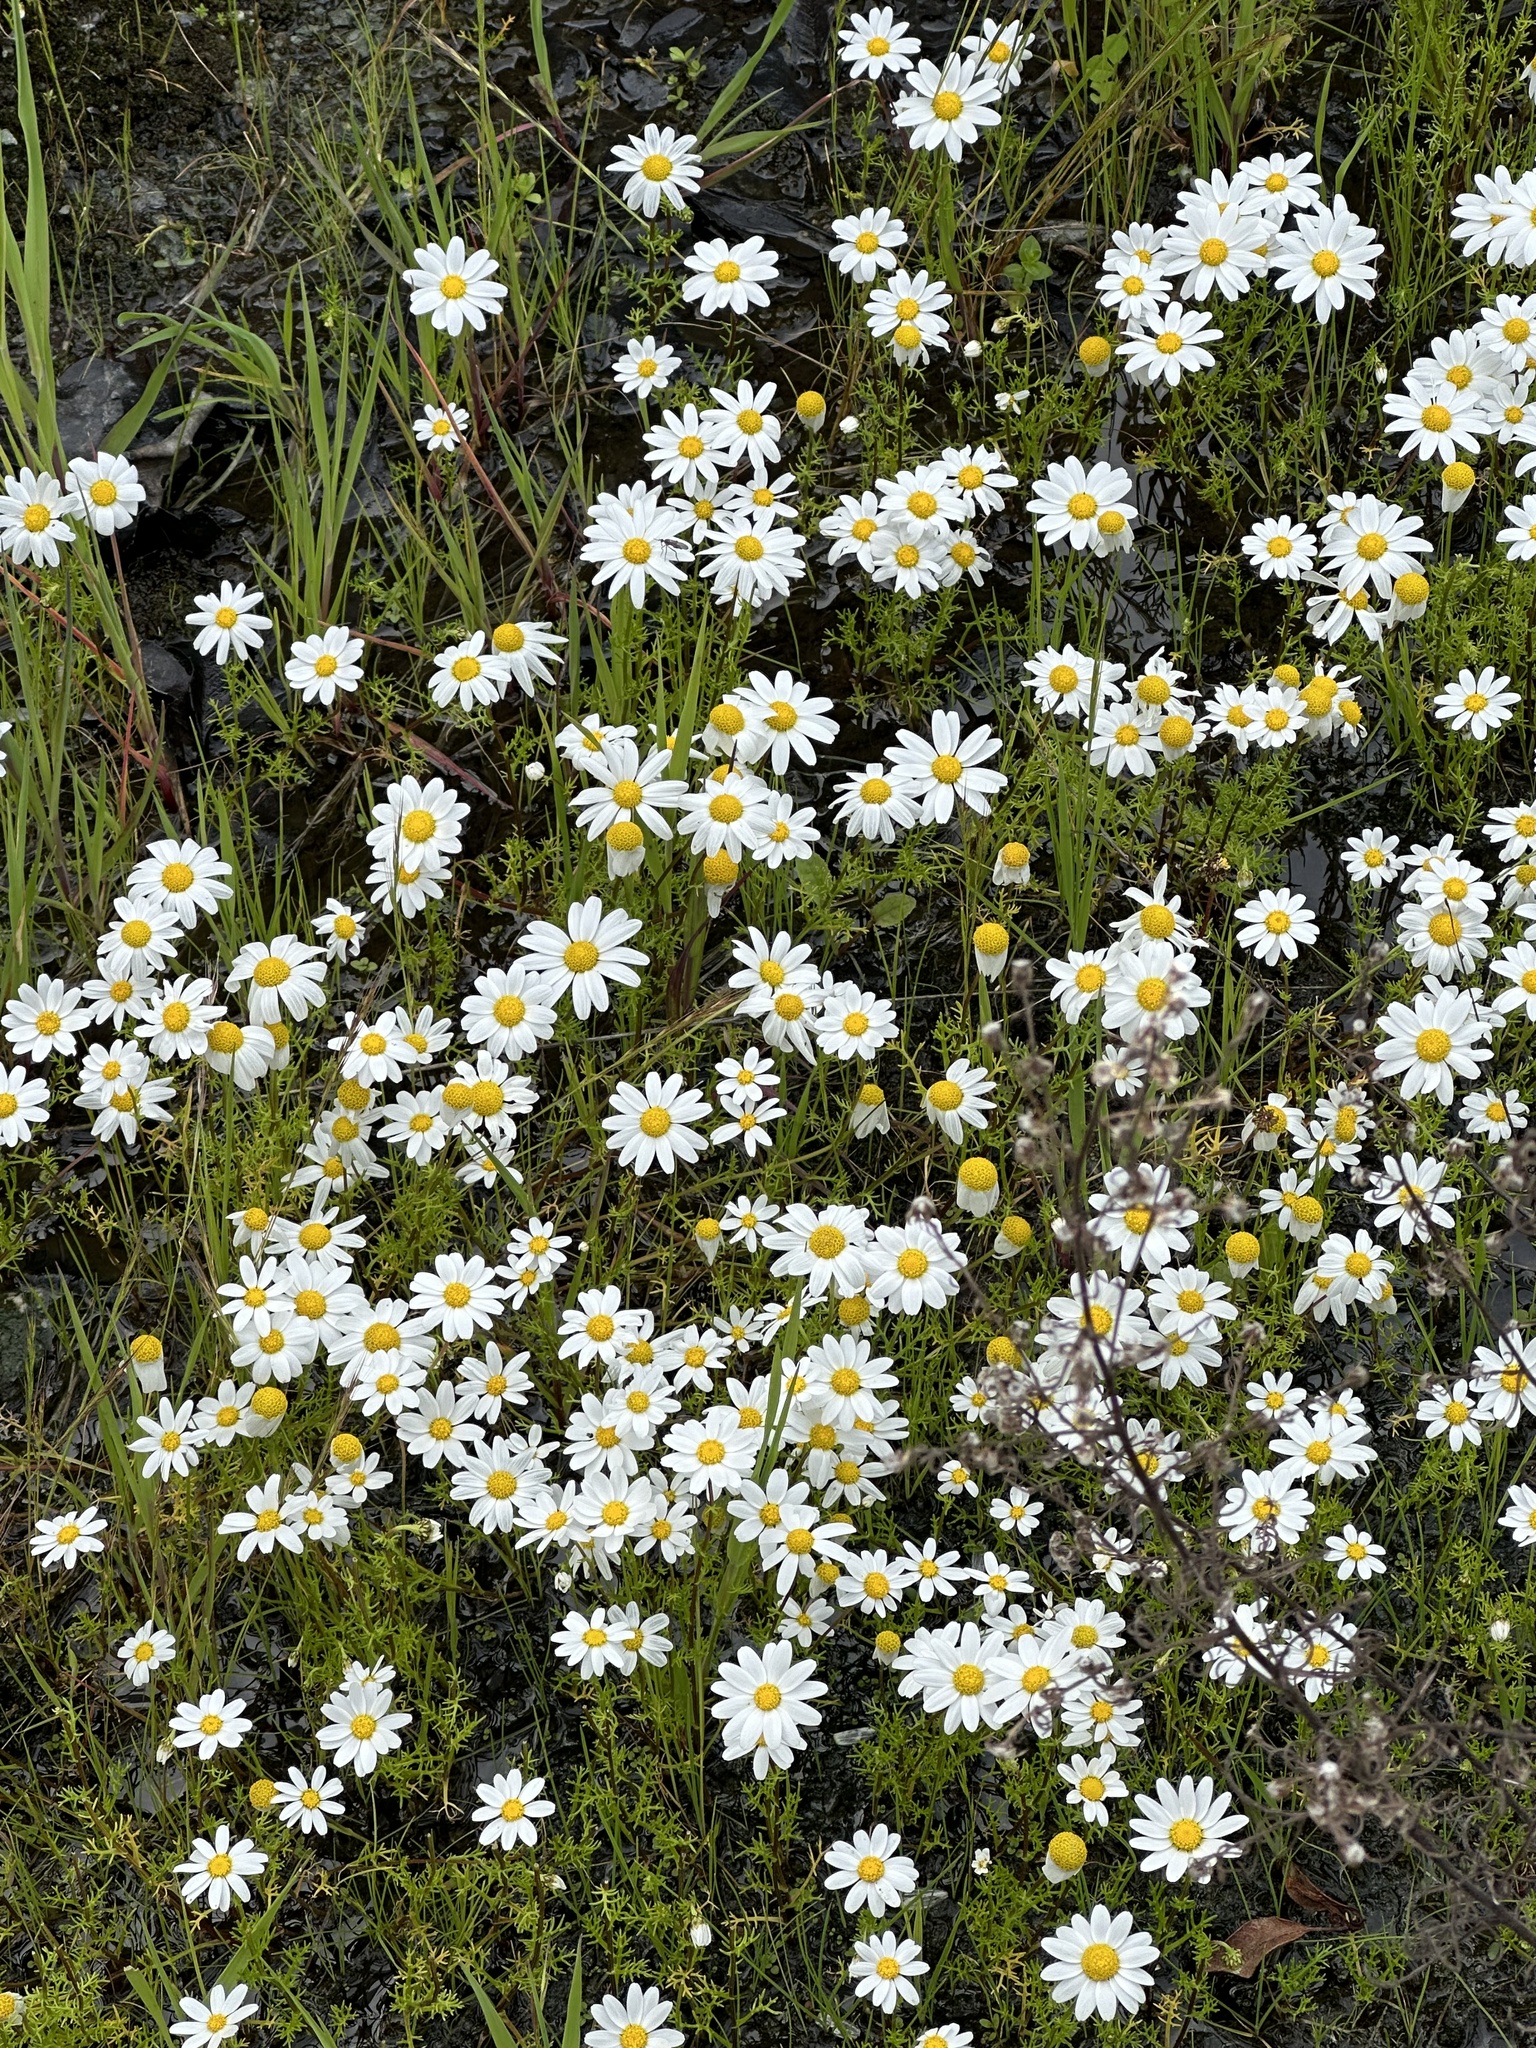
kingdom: Plantae
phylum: Tracheophyta
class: Magnoliopsida
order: Asterales
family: Asteraceae
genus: Anthemis
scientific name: Anthemis cotula
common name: Stinking chamomile
